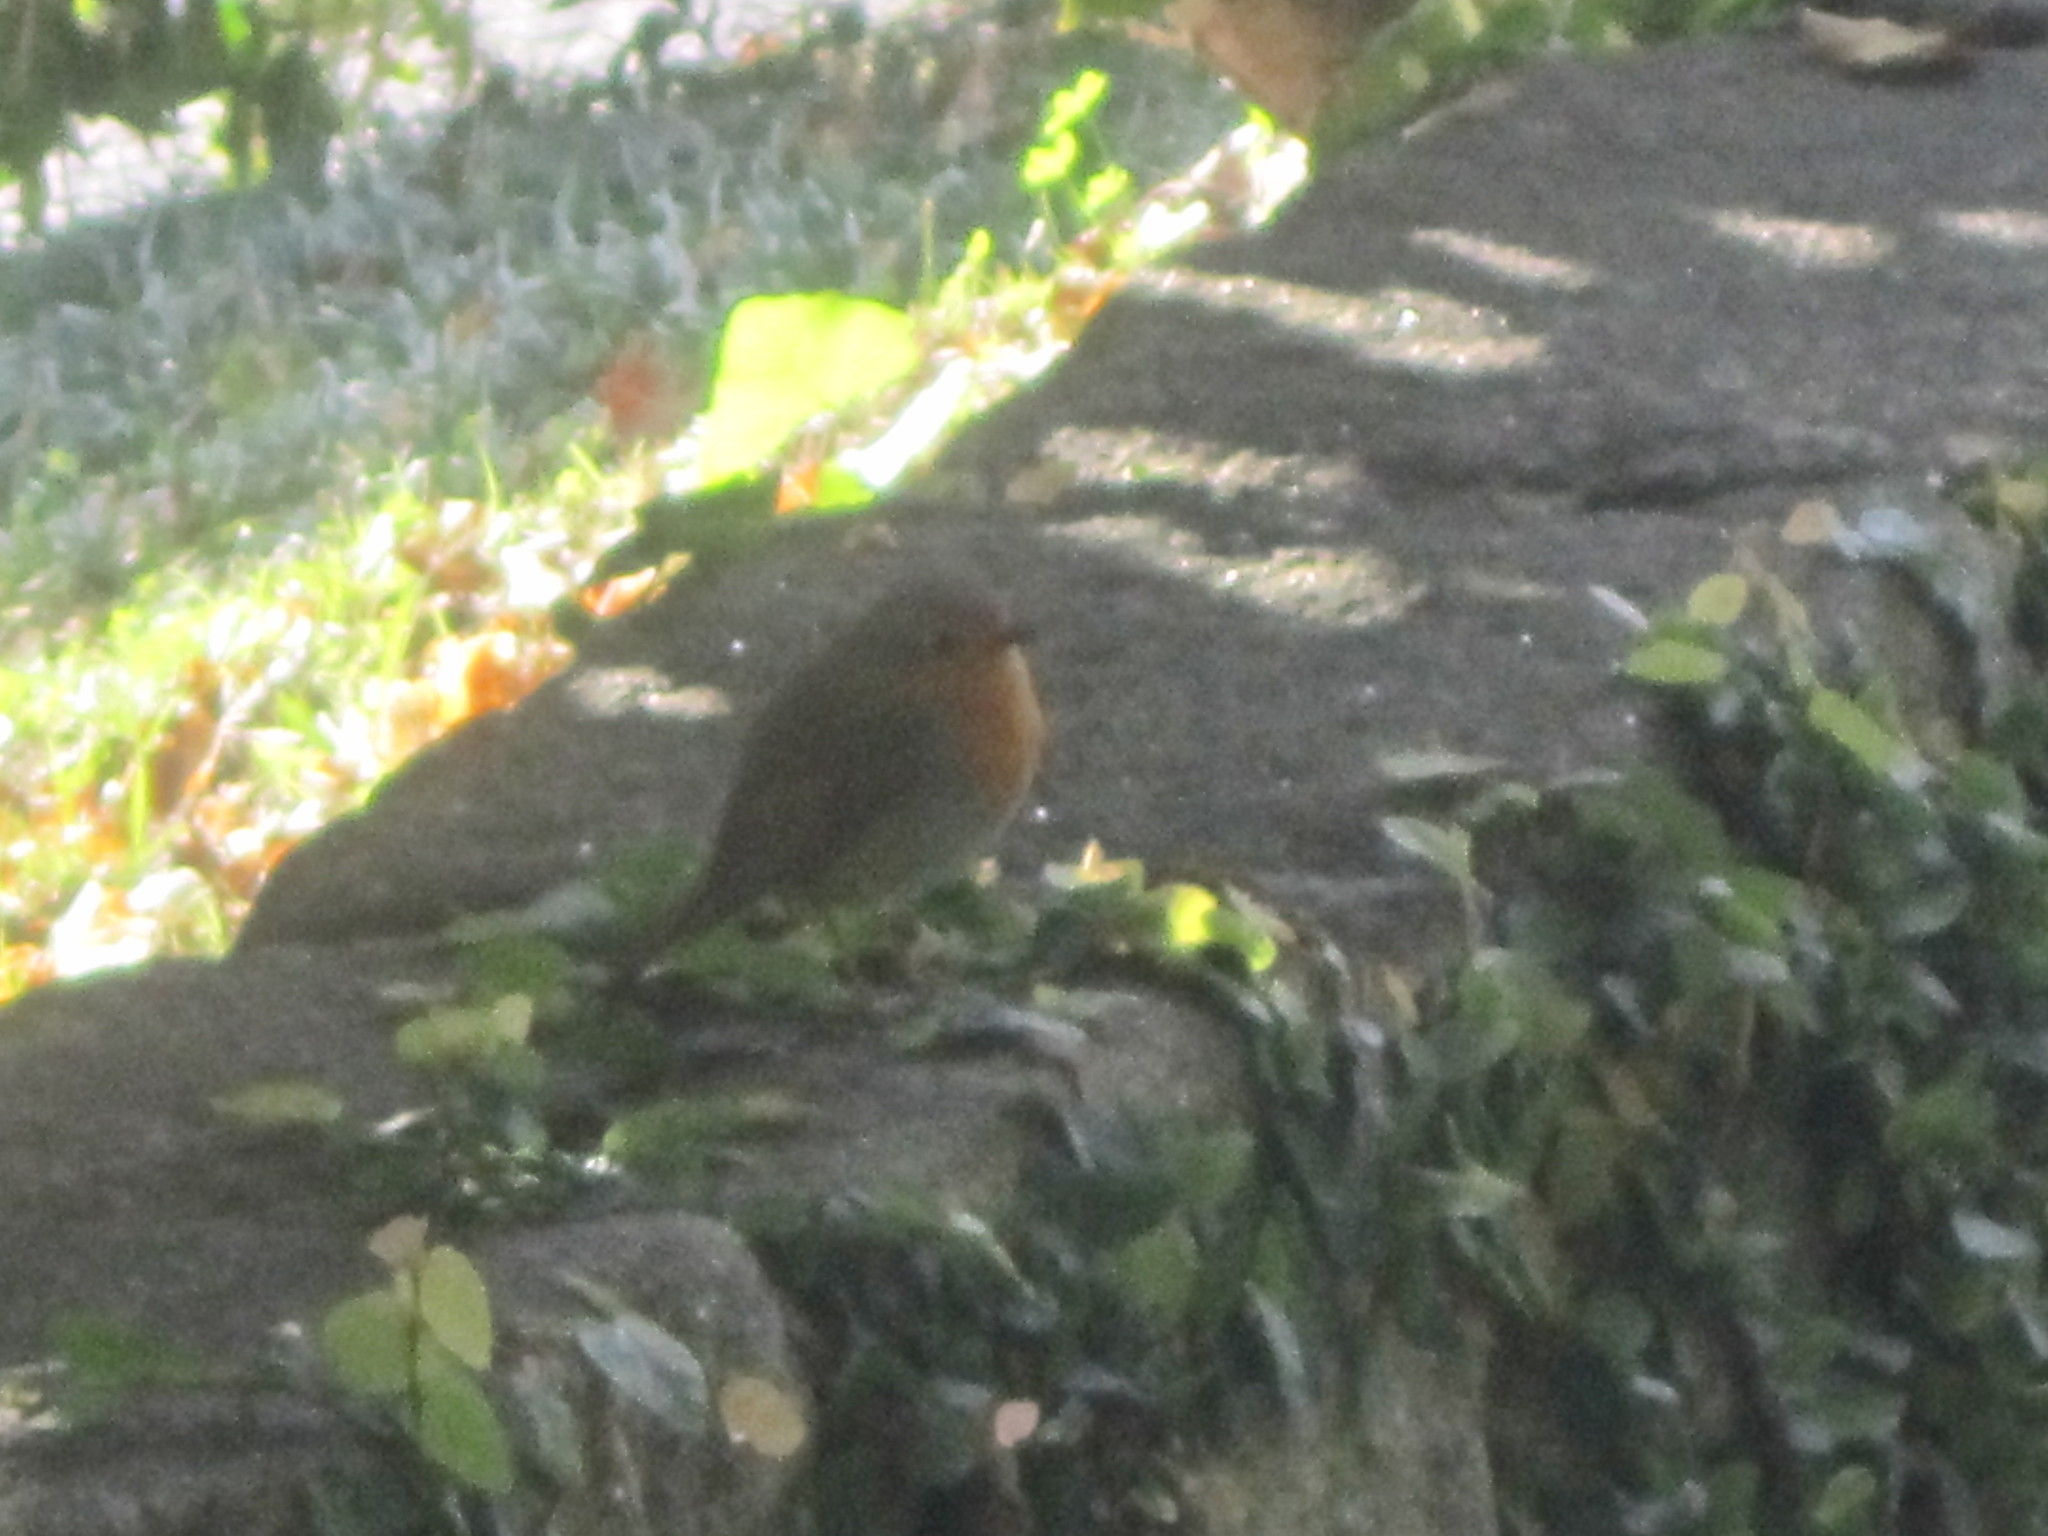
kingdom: Animalia
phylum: Chordata
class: Aves
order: Passeriformes
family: Muscicapidae
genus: Erithacus
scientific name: Erithacus rubecula
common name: European robin
